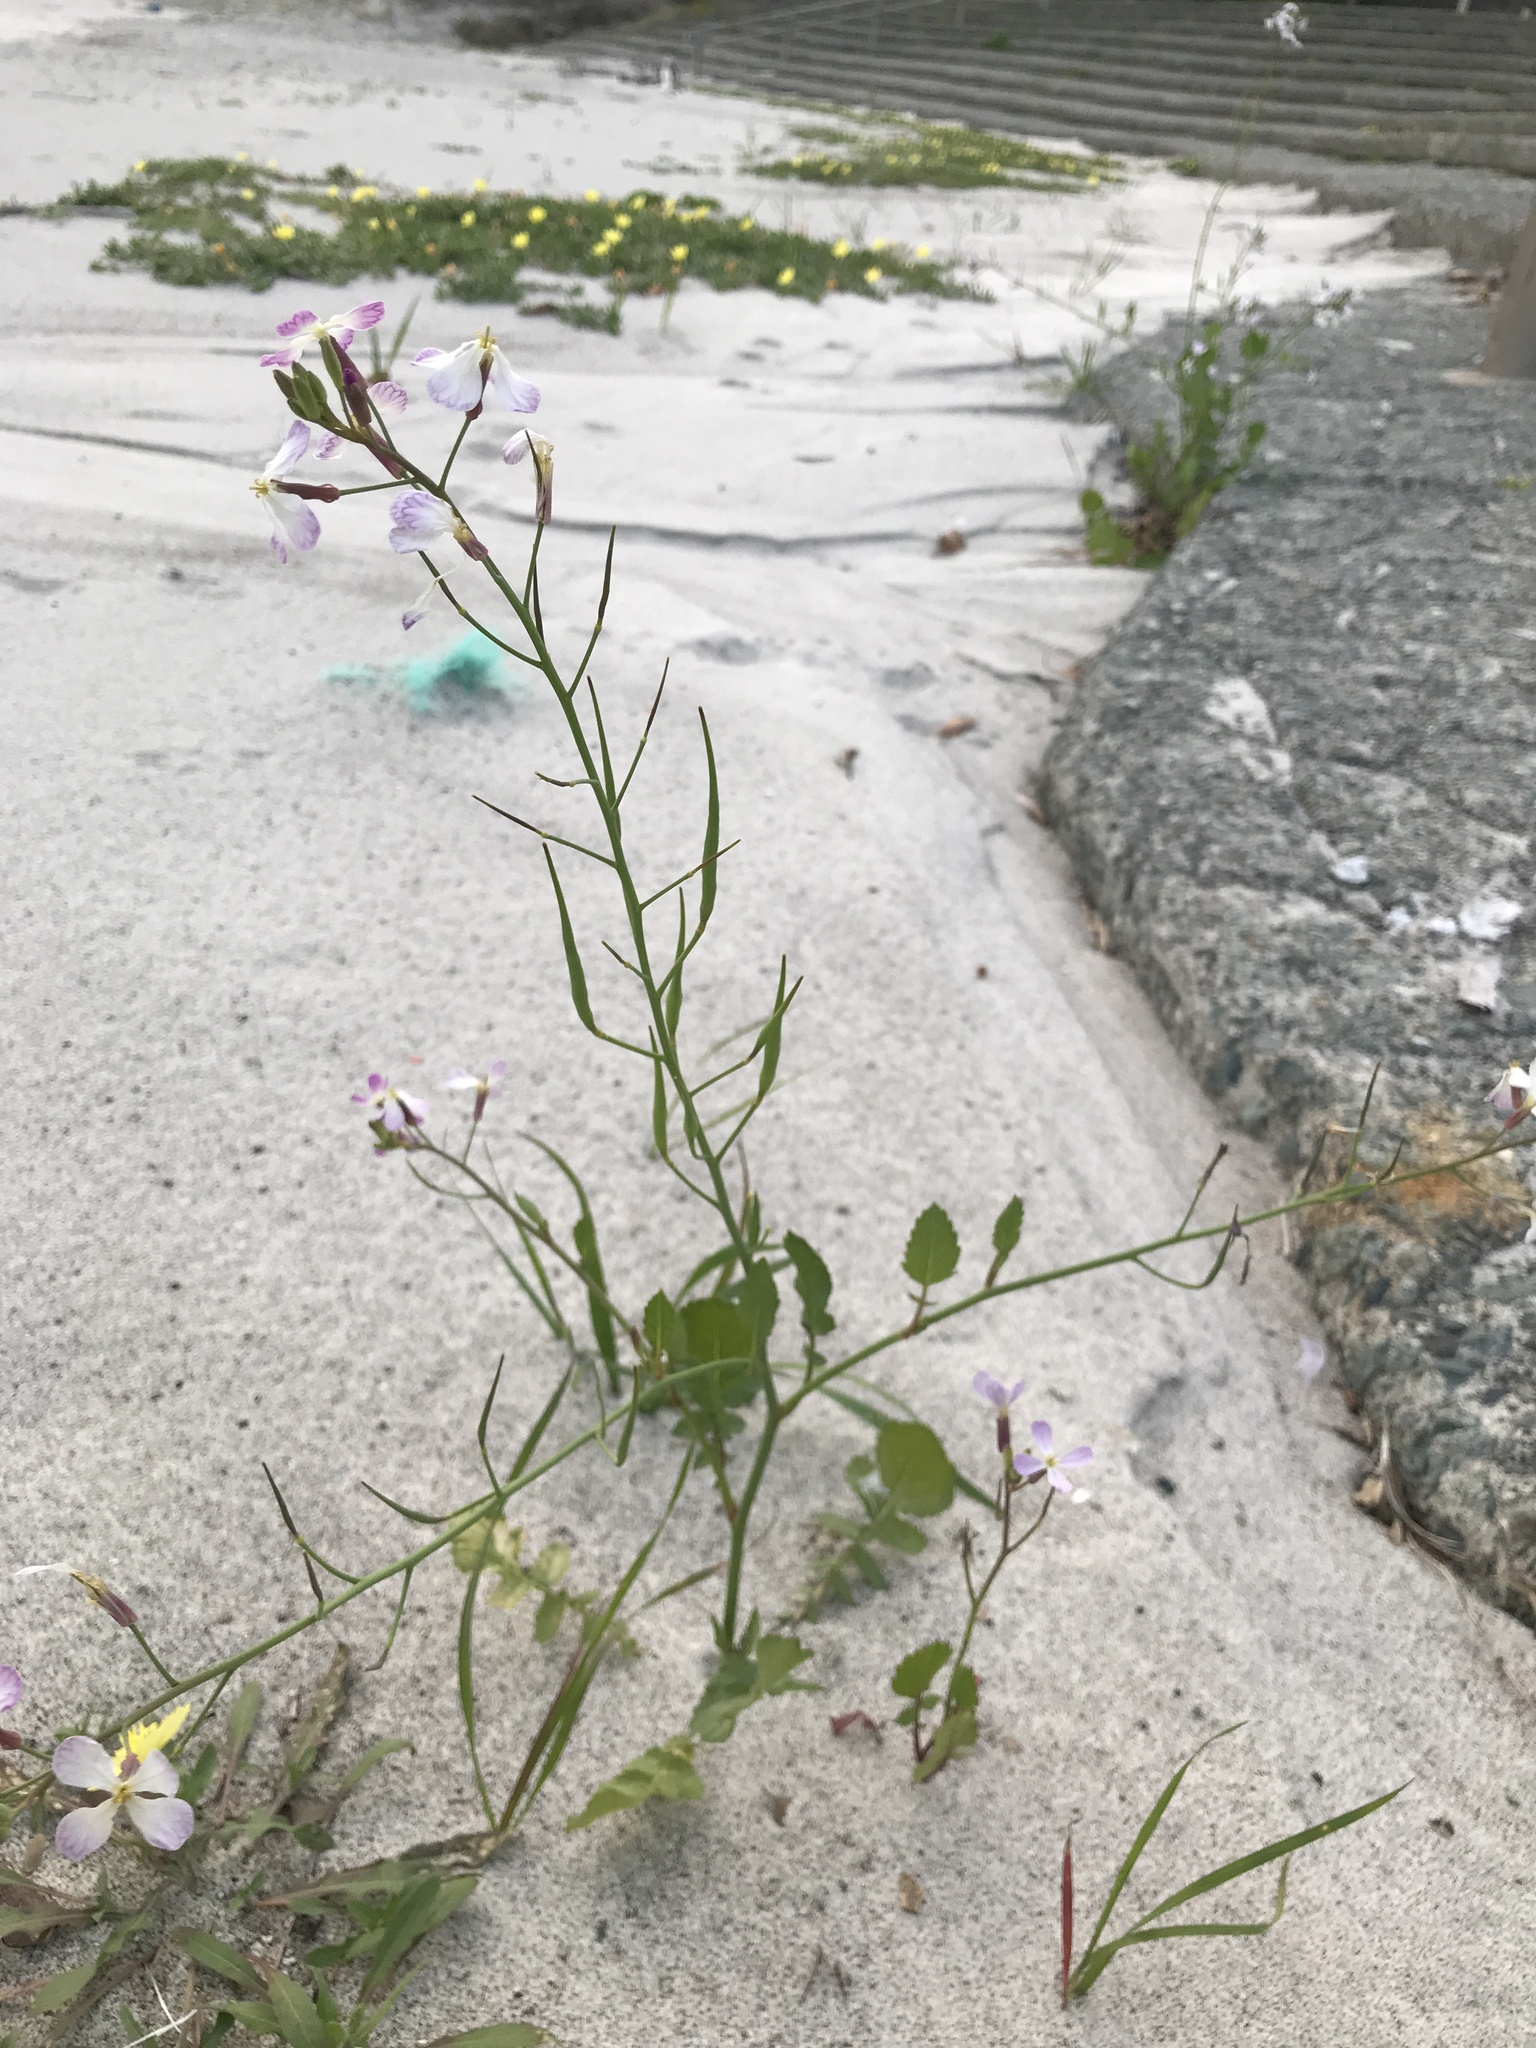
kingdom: Plantae
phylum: Tracheophyta
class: Magnoliopsida
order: Brassicales
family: Brassicaceae
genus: Raphanus
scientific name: Raphanus sativus
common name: Cultivated radish
